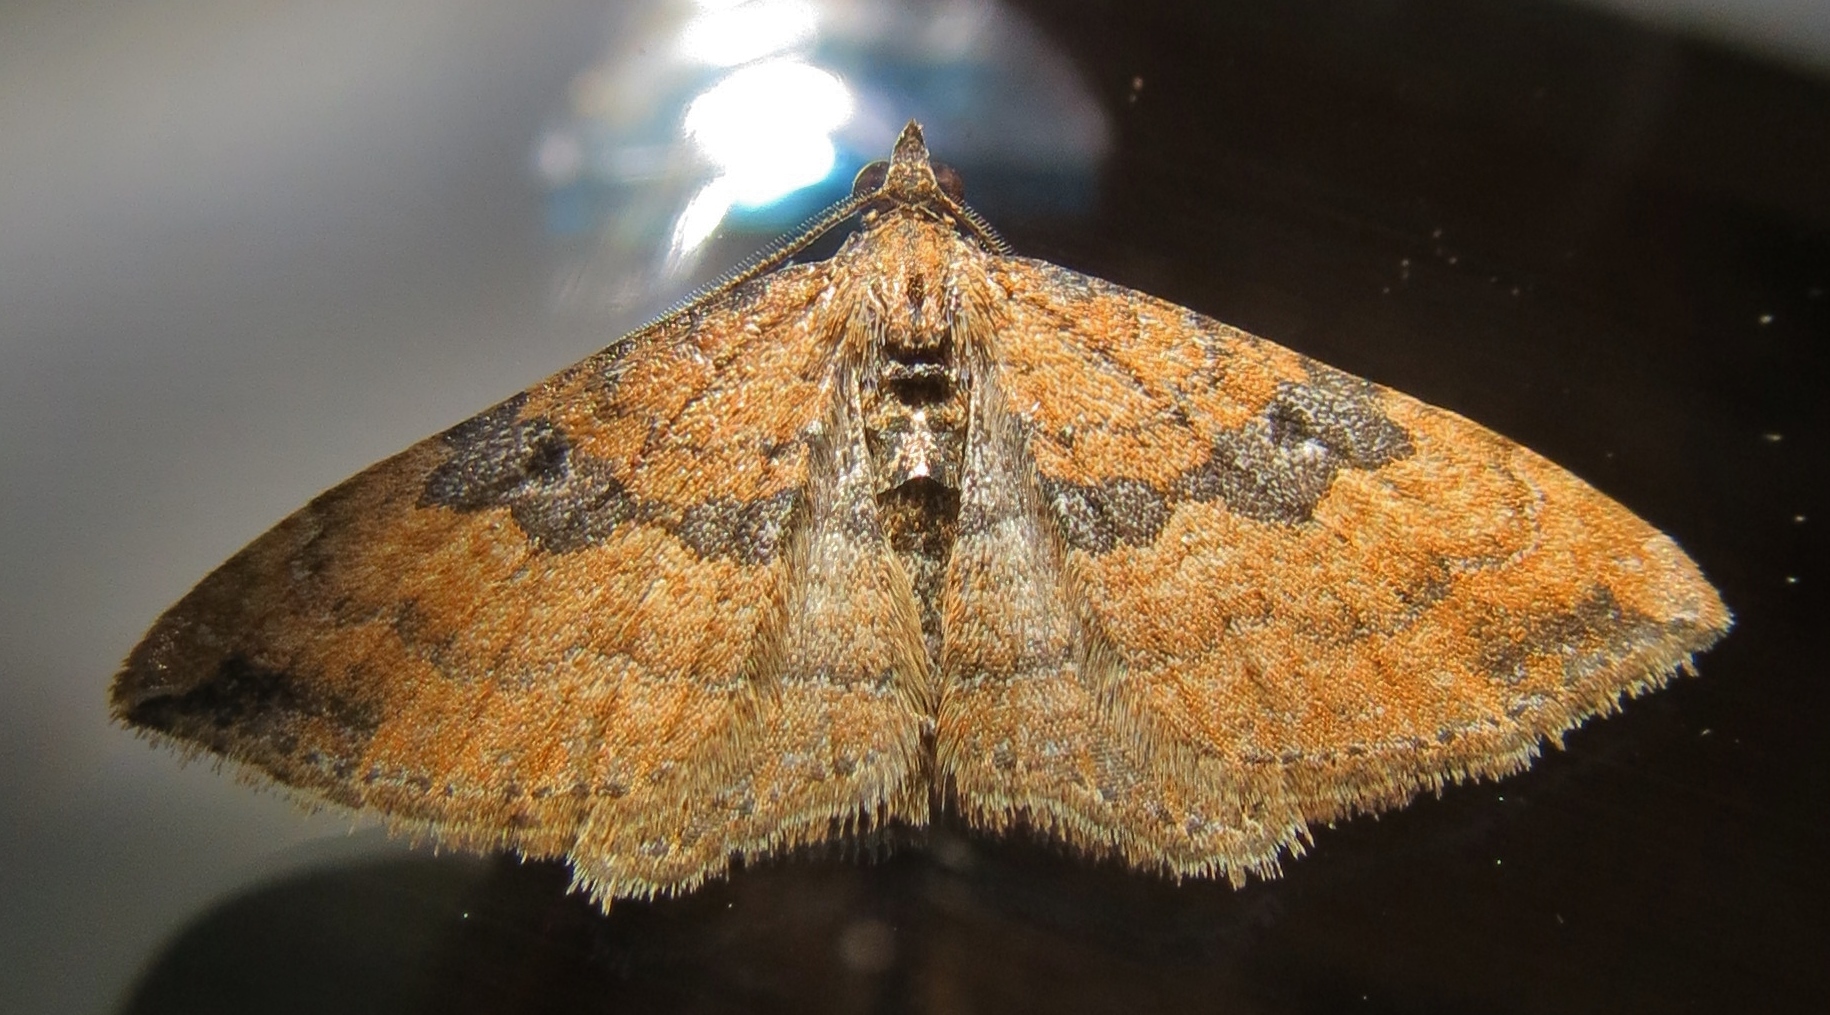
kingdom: Animalia
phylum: Arthropoda
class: Insecta
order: Lepidoptera
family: Geometridae
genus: Orthonama
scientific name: Orthonama obstipata
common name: The gem
